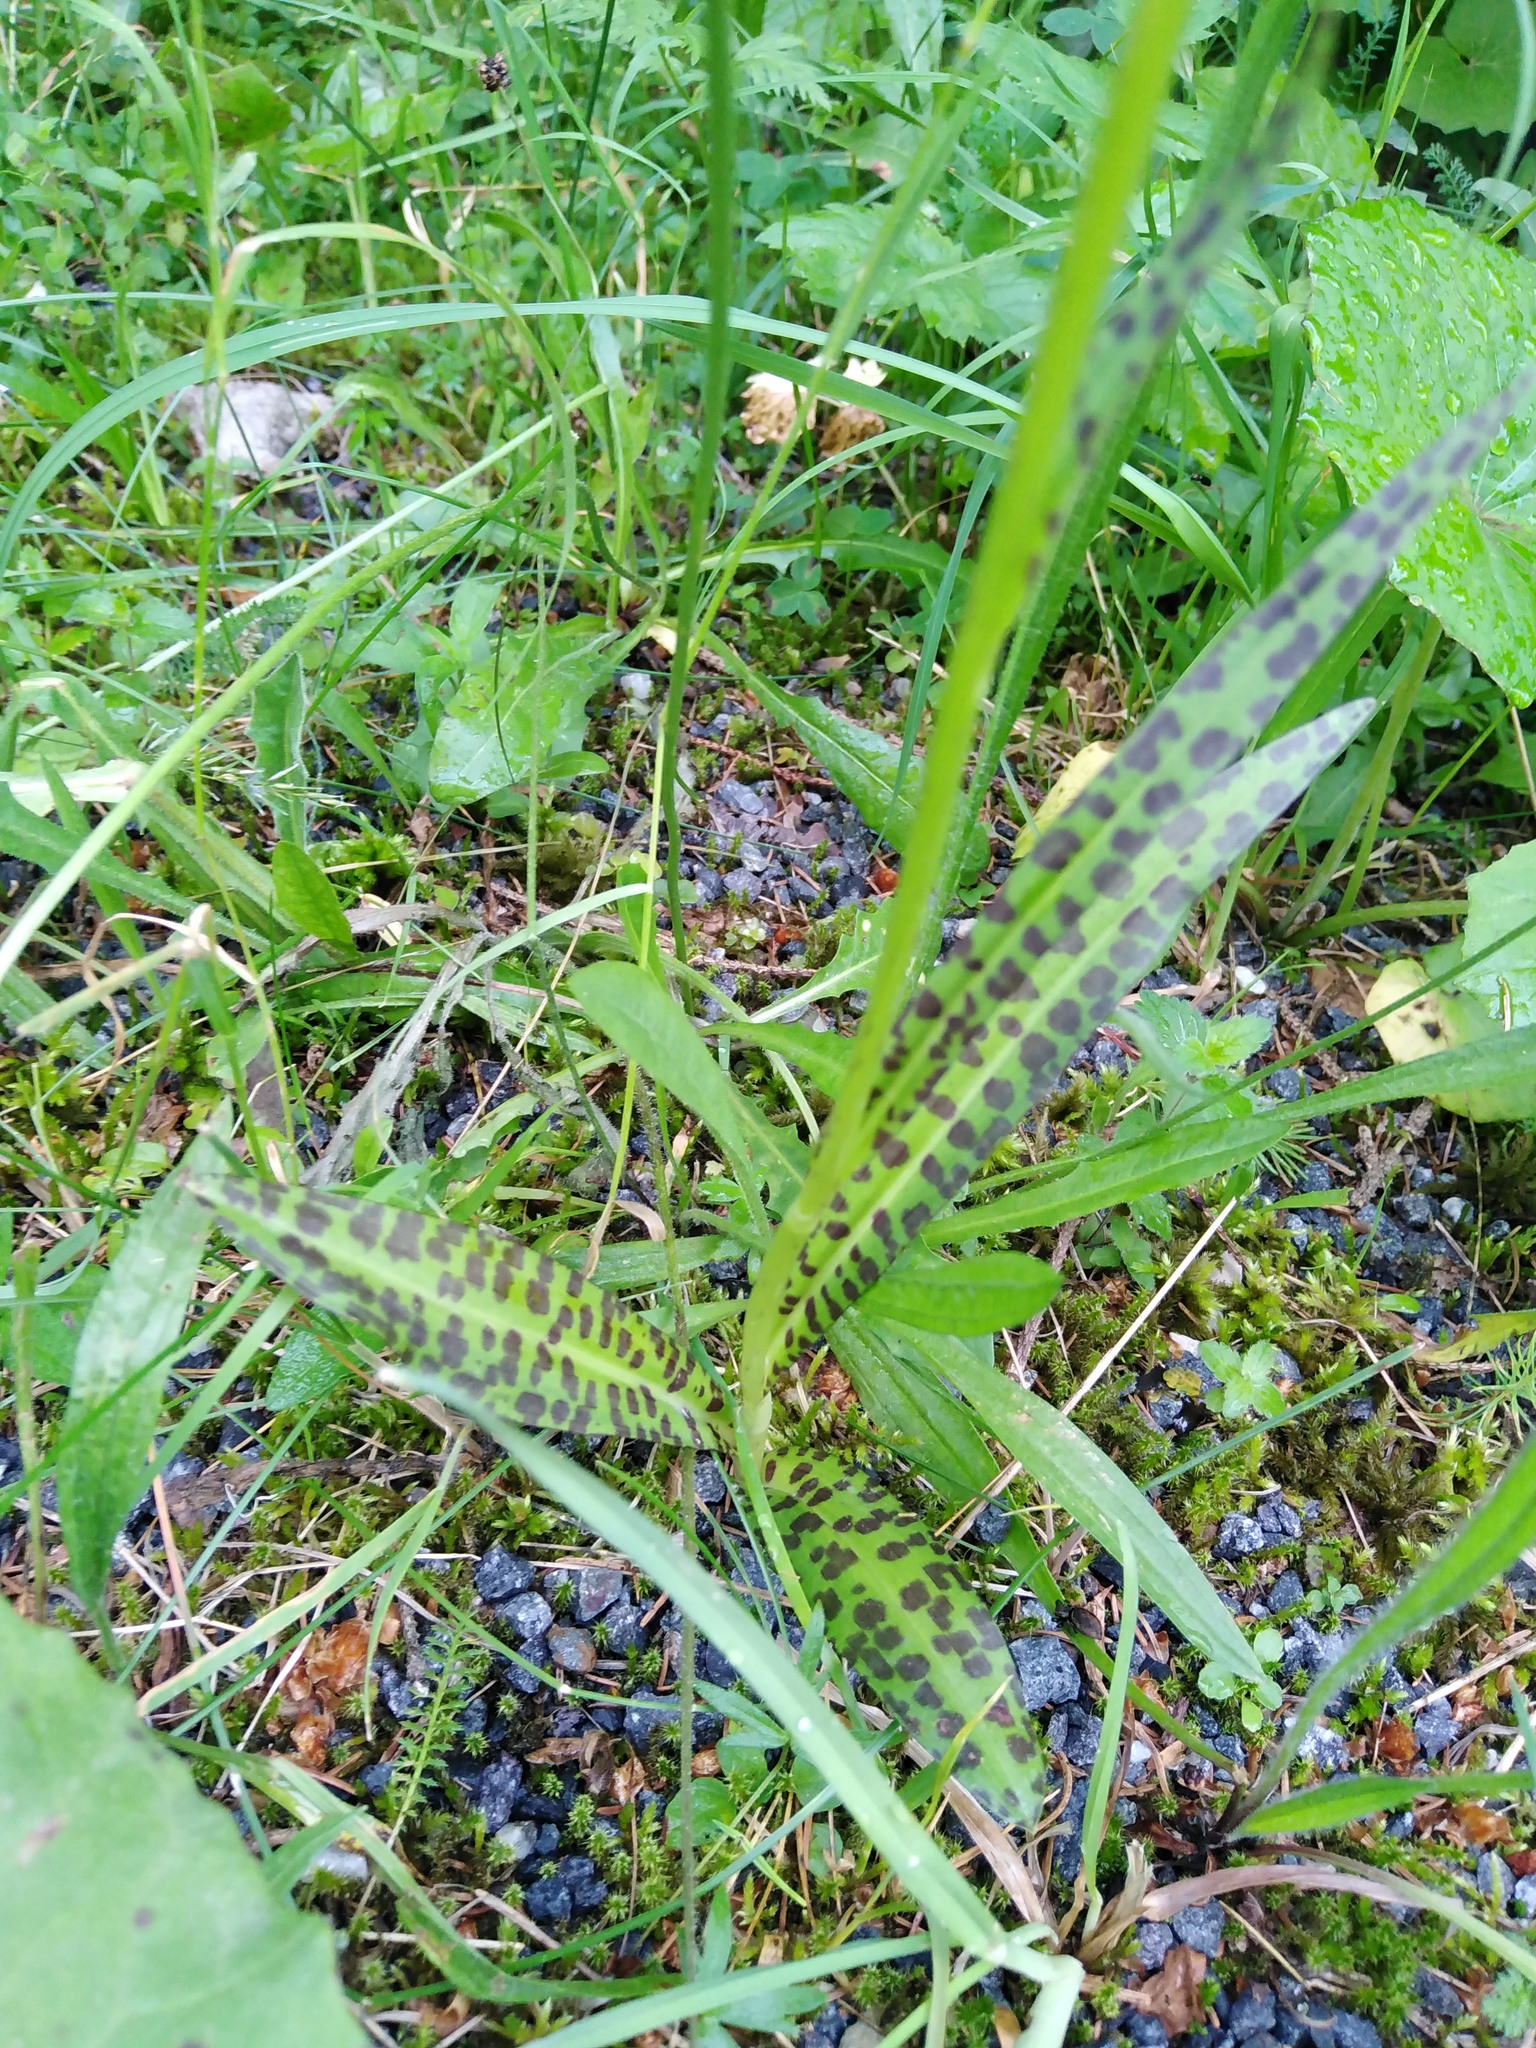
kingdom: Plantae
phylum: Tracheophyta
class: Liliopsida
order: Asparagales
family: Orchidaceae
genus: Dactylorhiza
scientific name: Dactylorhiza maculata
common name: Heath spotted-orchid
